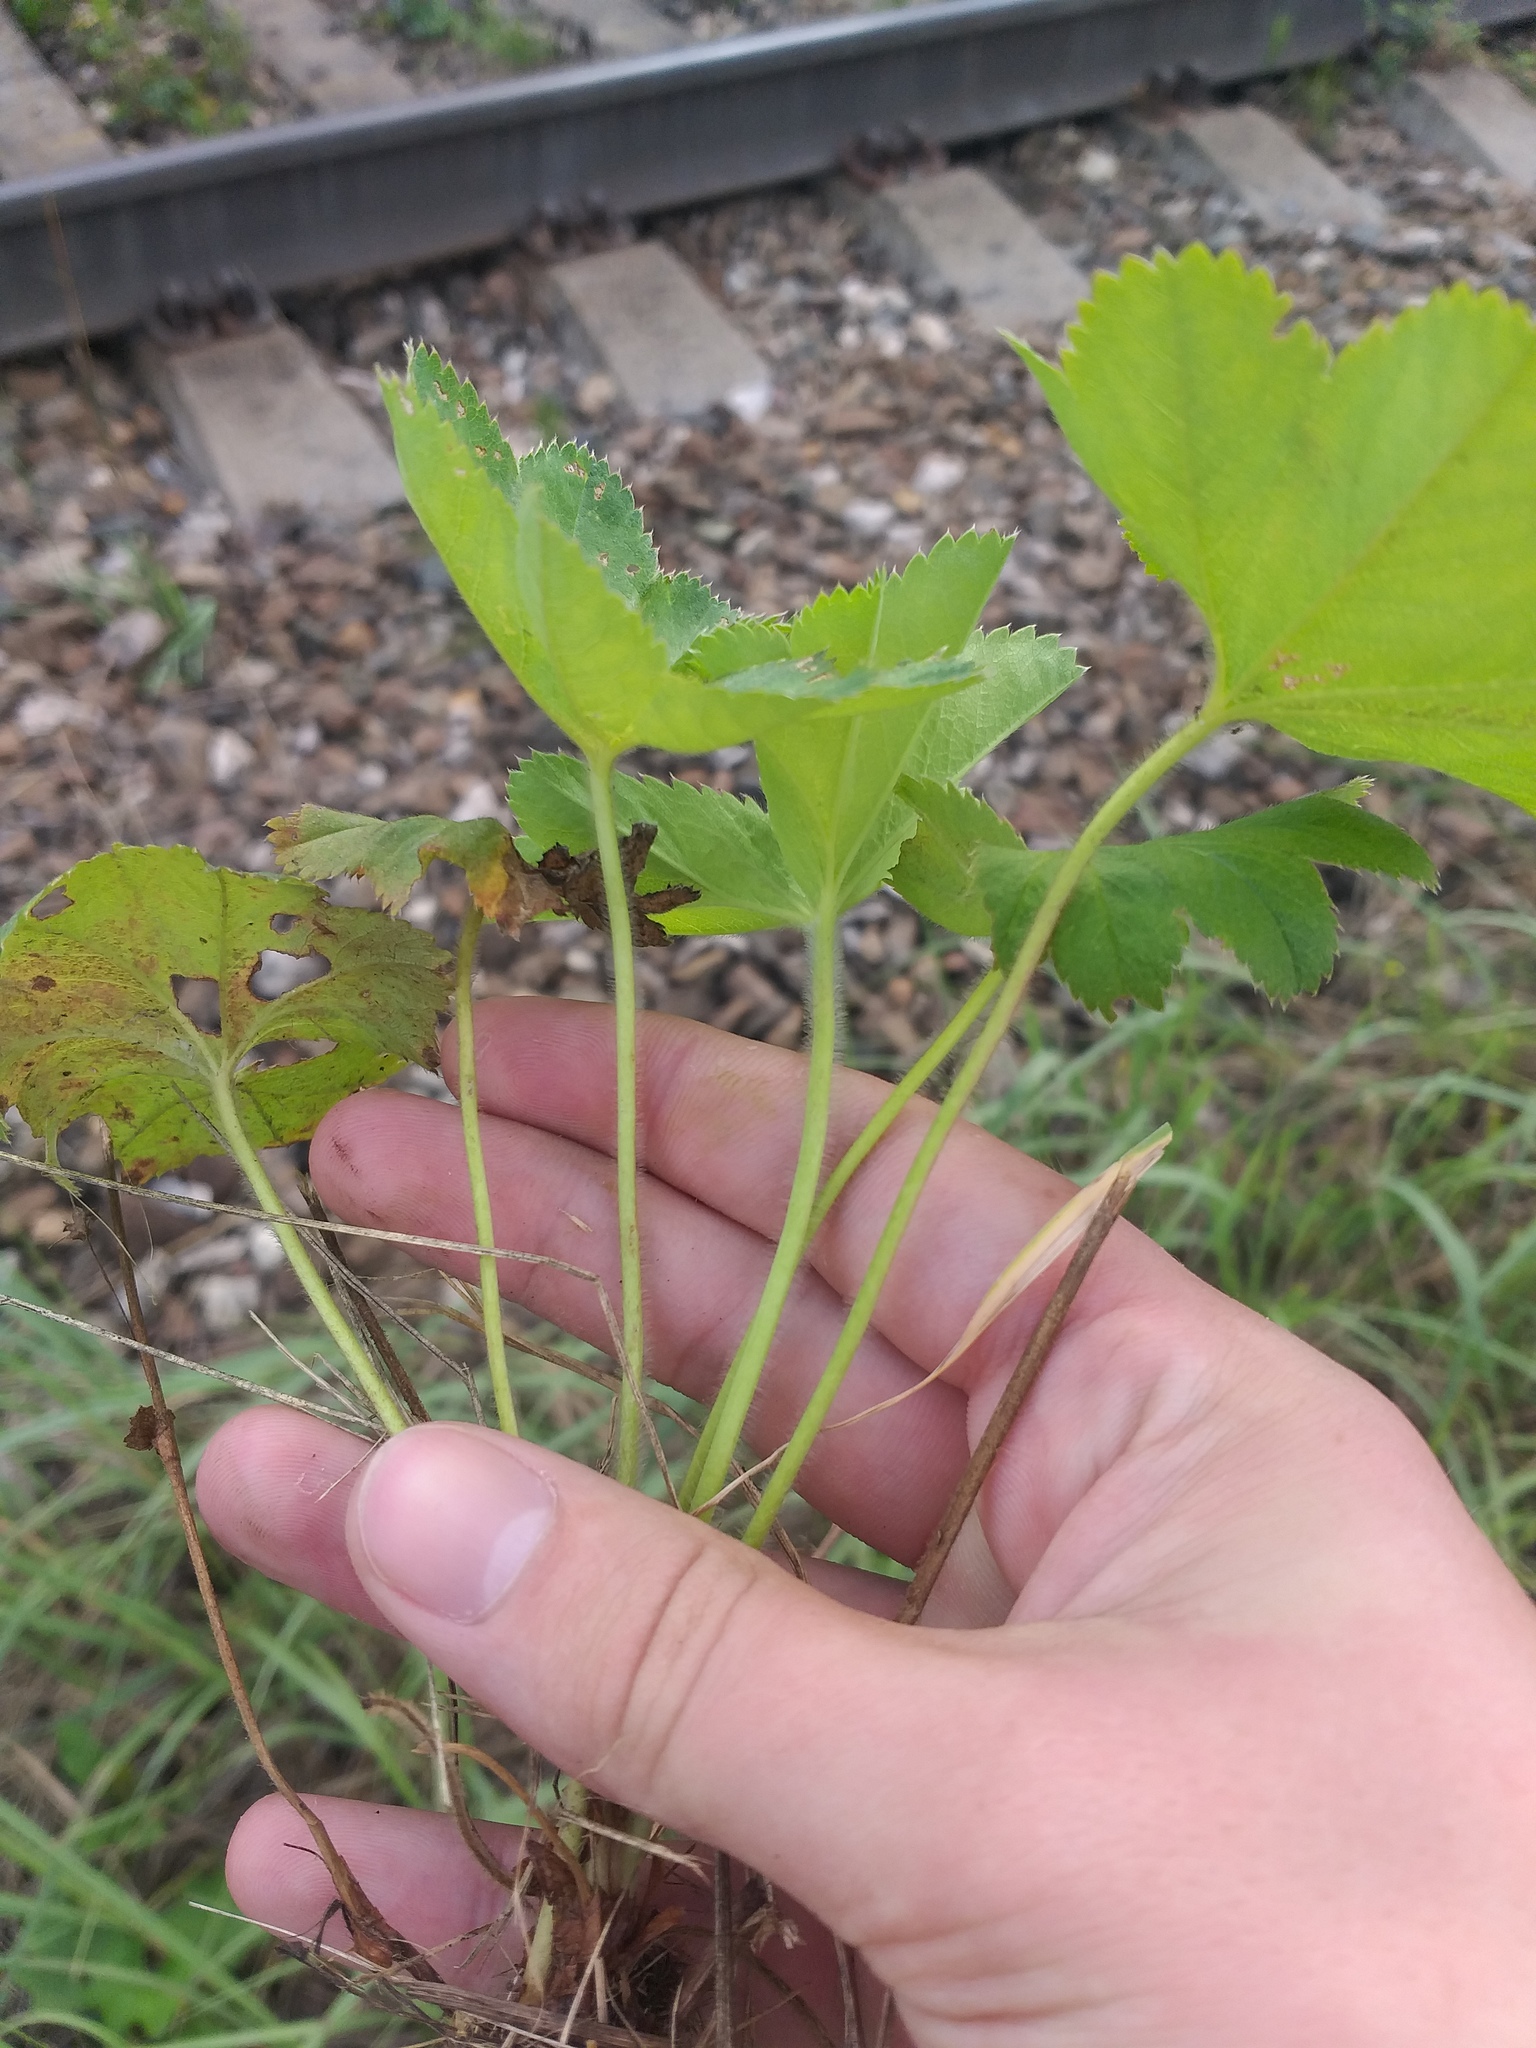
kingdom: Plantae
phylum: Tracheophyta
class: Magnoliopsida
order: Rosales
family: Rosaceae
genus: Alchemilla
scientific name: Alchemilla micans
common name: Gleaming lady's mantle
